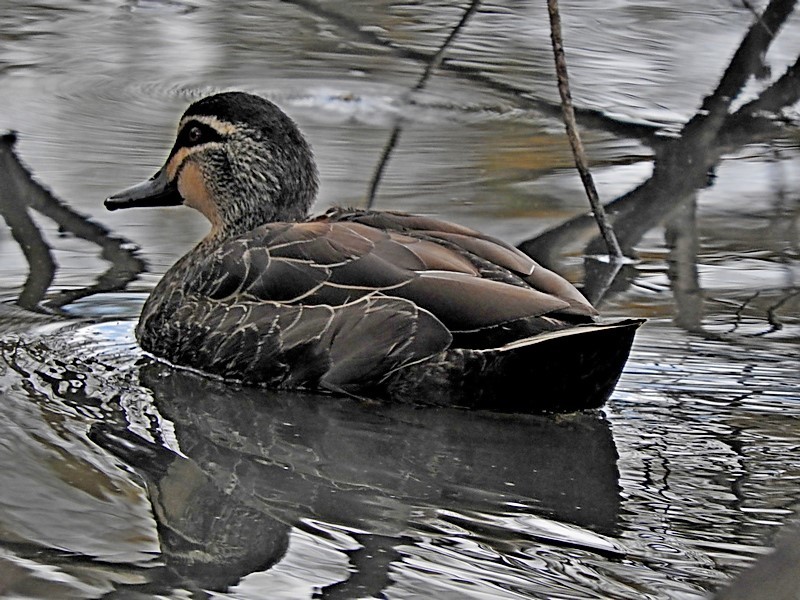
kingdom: Animalia
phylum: Chordata
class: Aves
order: Anseriformes
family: Anatidae
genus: Anas
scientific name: Anas superciliosa
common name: Pacific black duck
